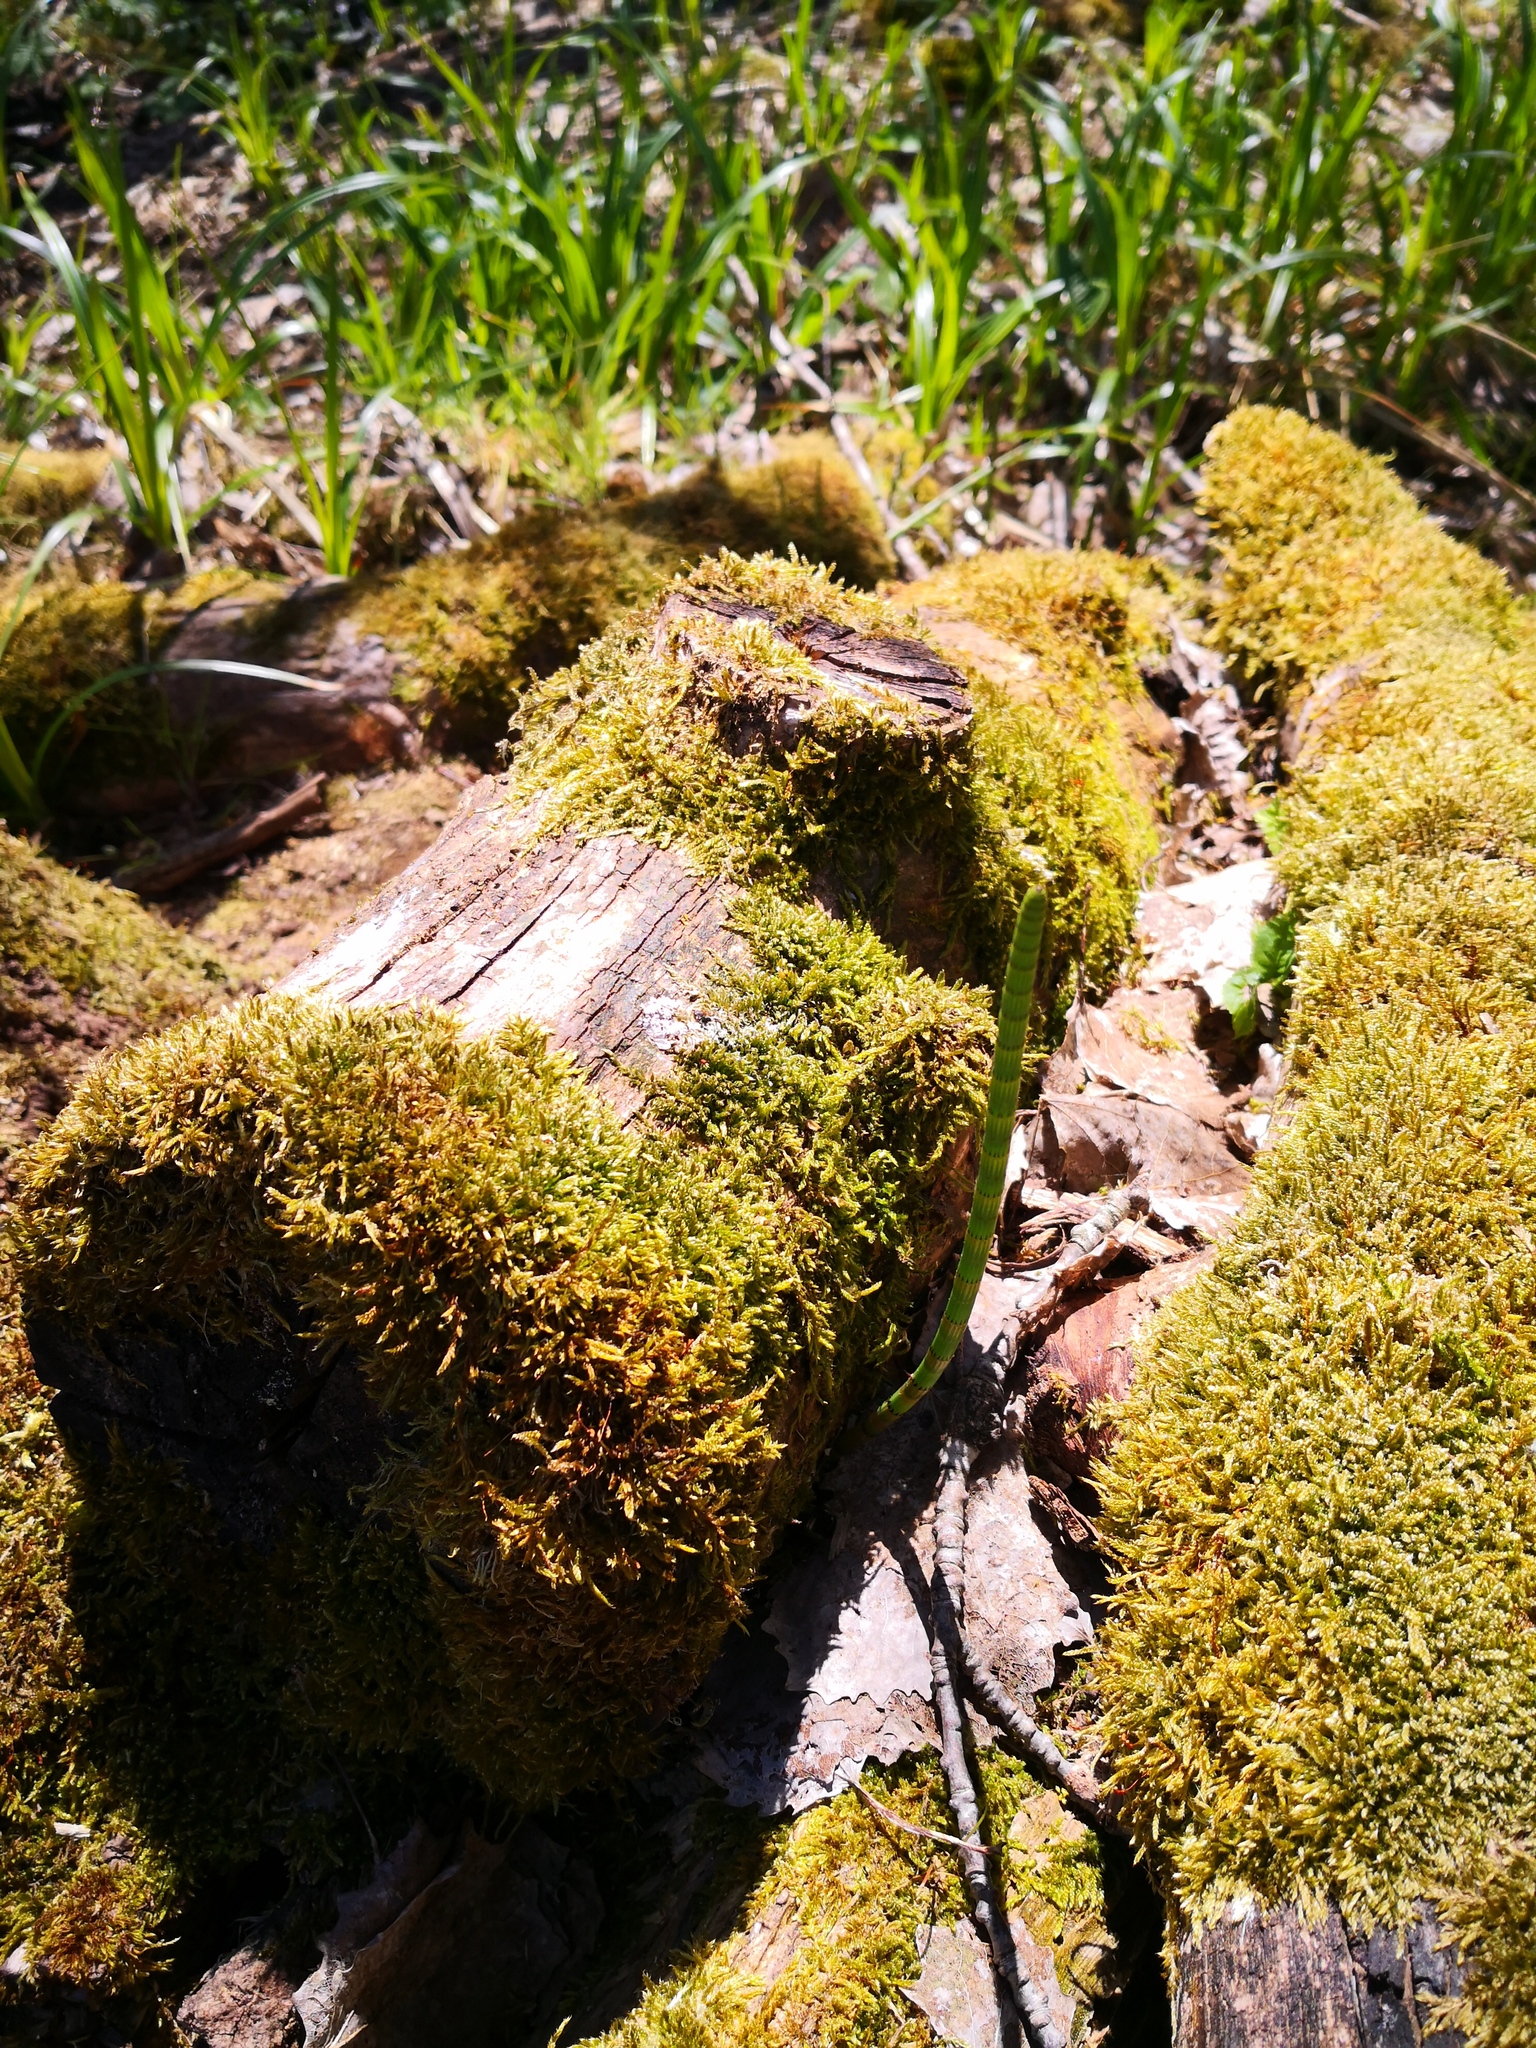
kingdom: Plantae
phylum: Tracheophyta
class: Polypodiopsida
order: Equisetales
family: Equisetaceae
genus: Equisetum
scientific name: Equisetum fluviatile
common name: Water horsetail
